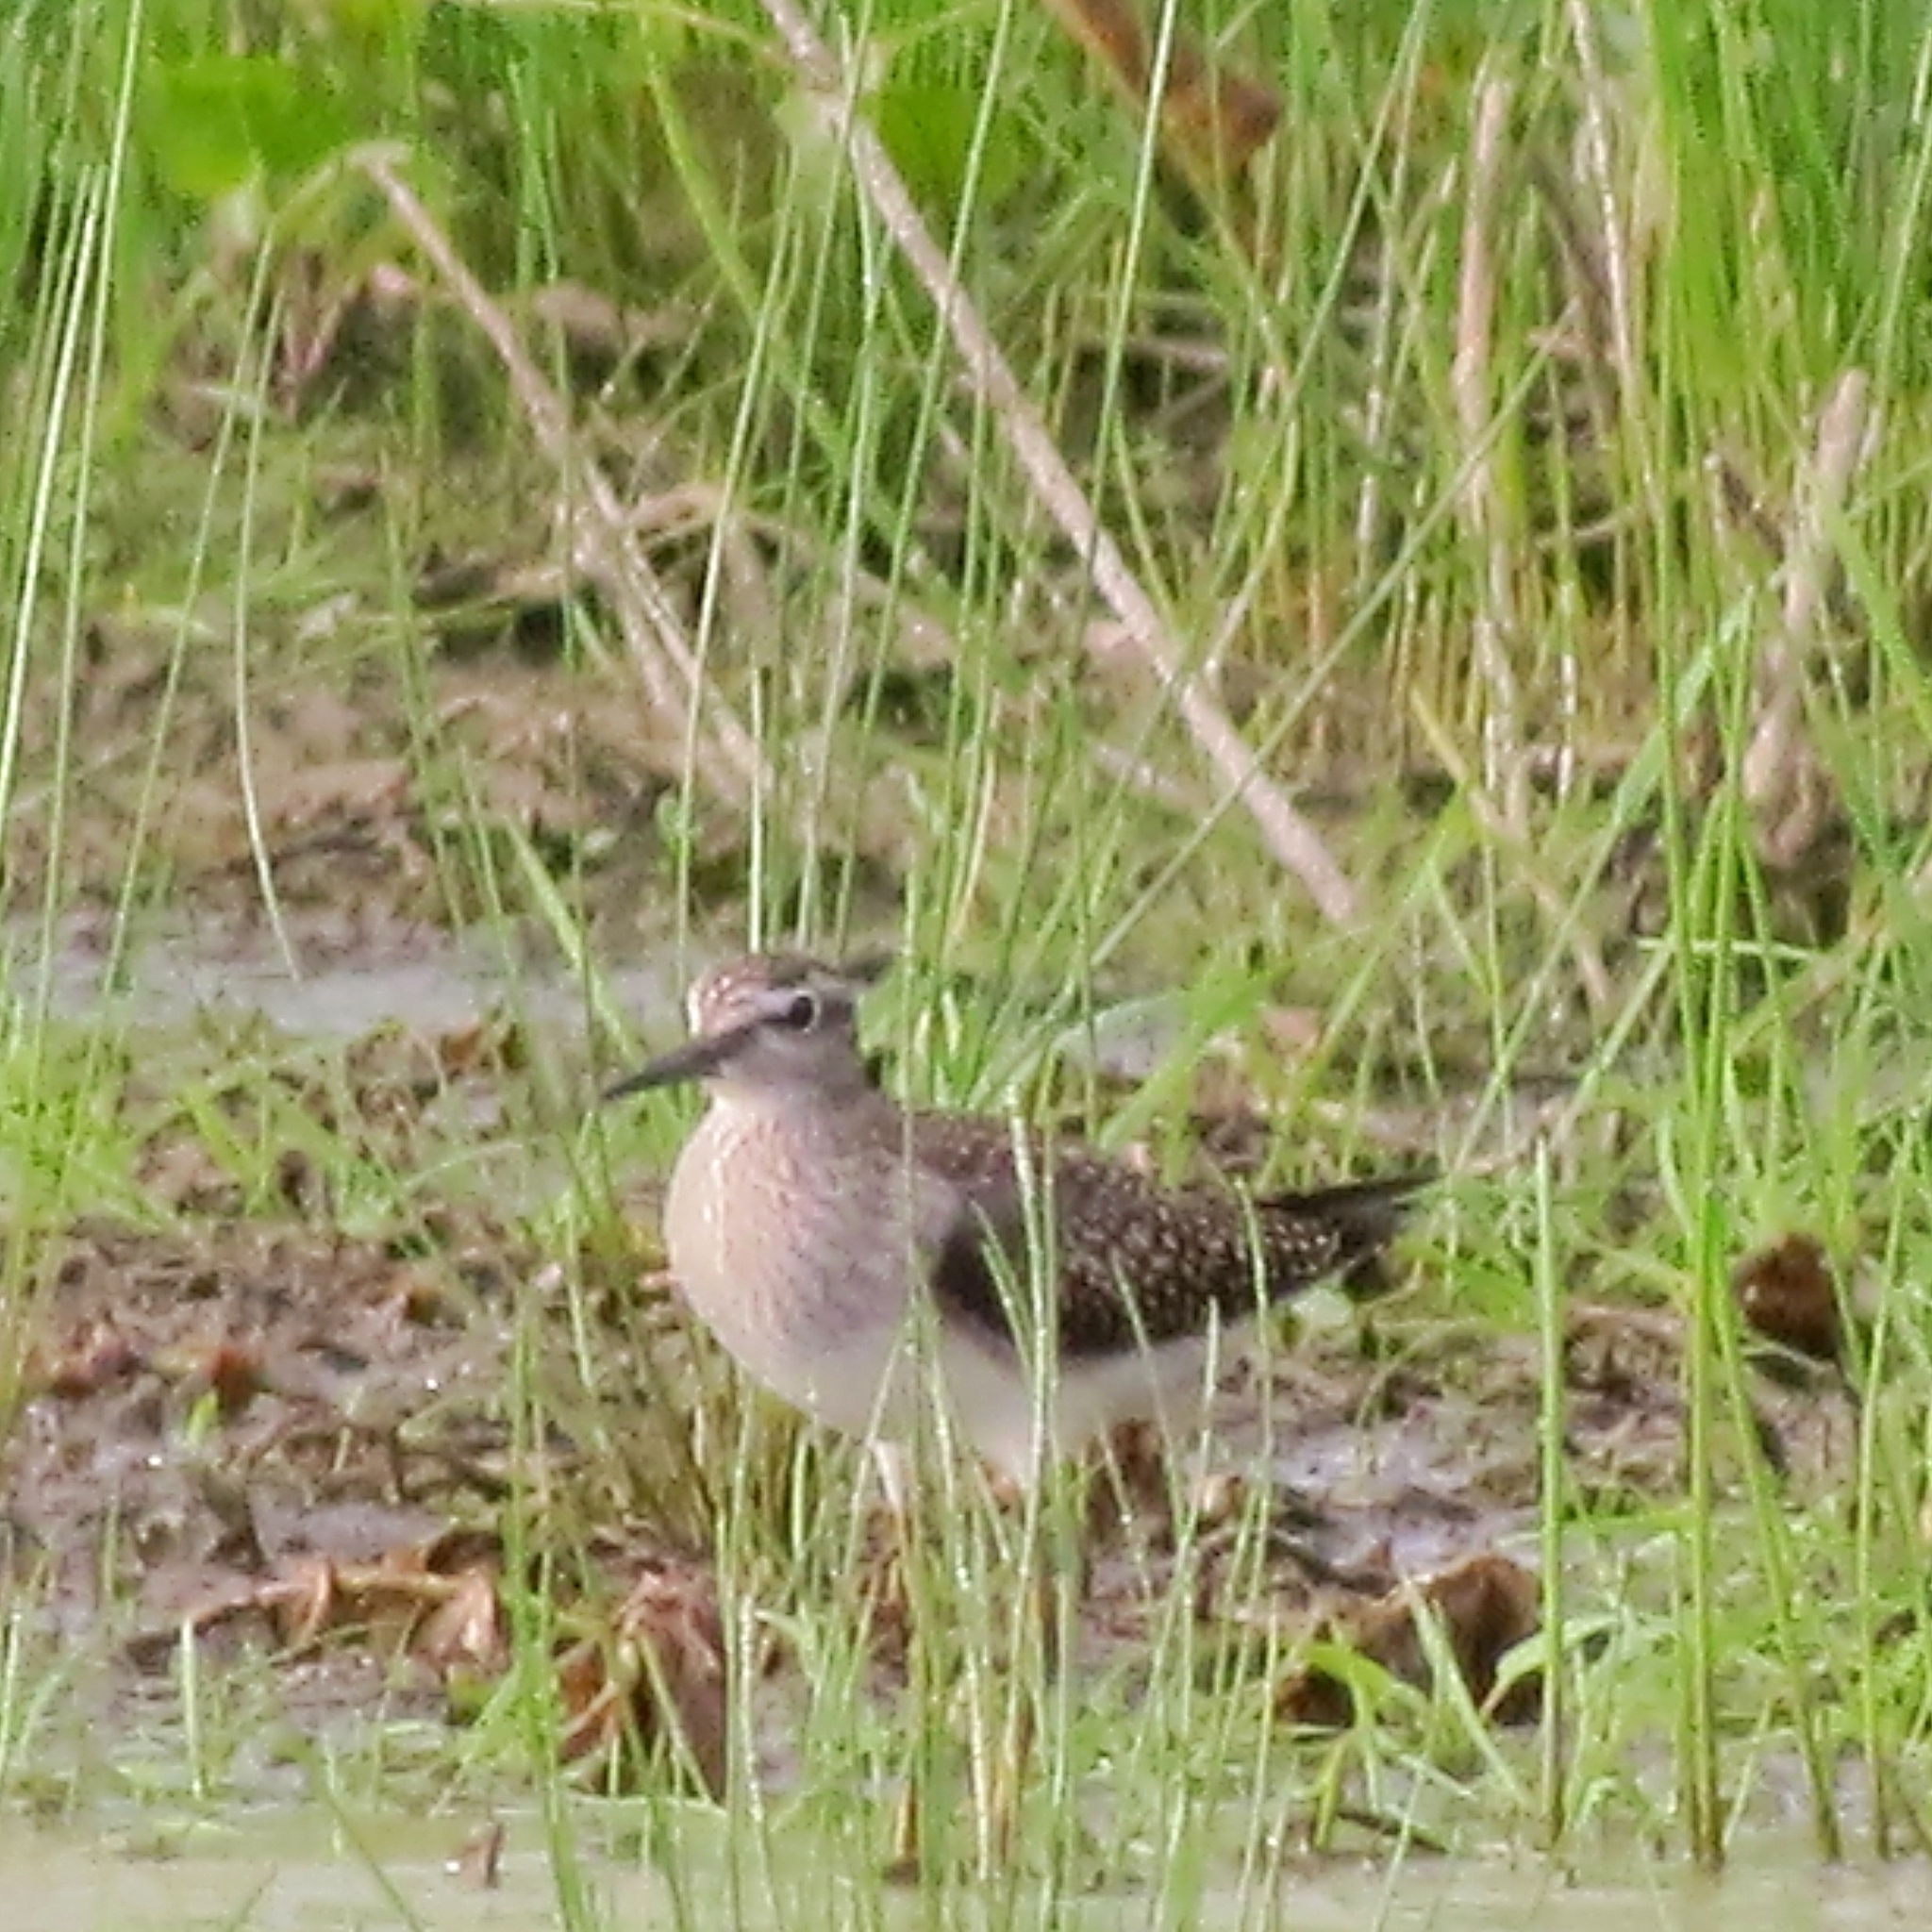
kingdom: Animalia
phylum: Chordata
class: Aves
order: Charadriiformes
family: Scolopacidae
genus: Tringa
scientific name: Tringa glareola
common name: Wood sandpiper
